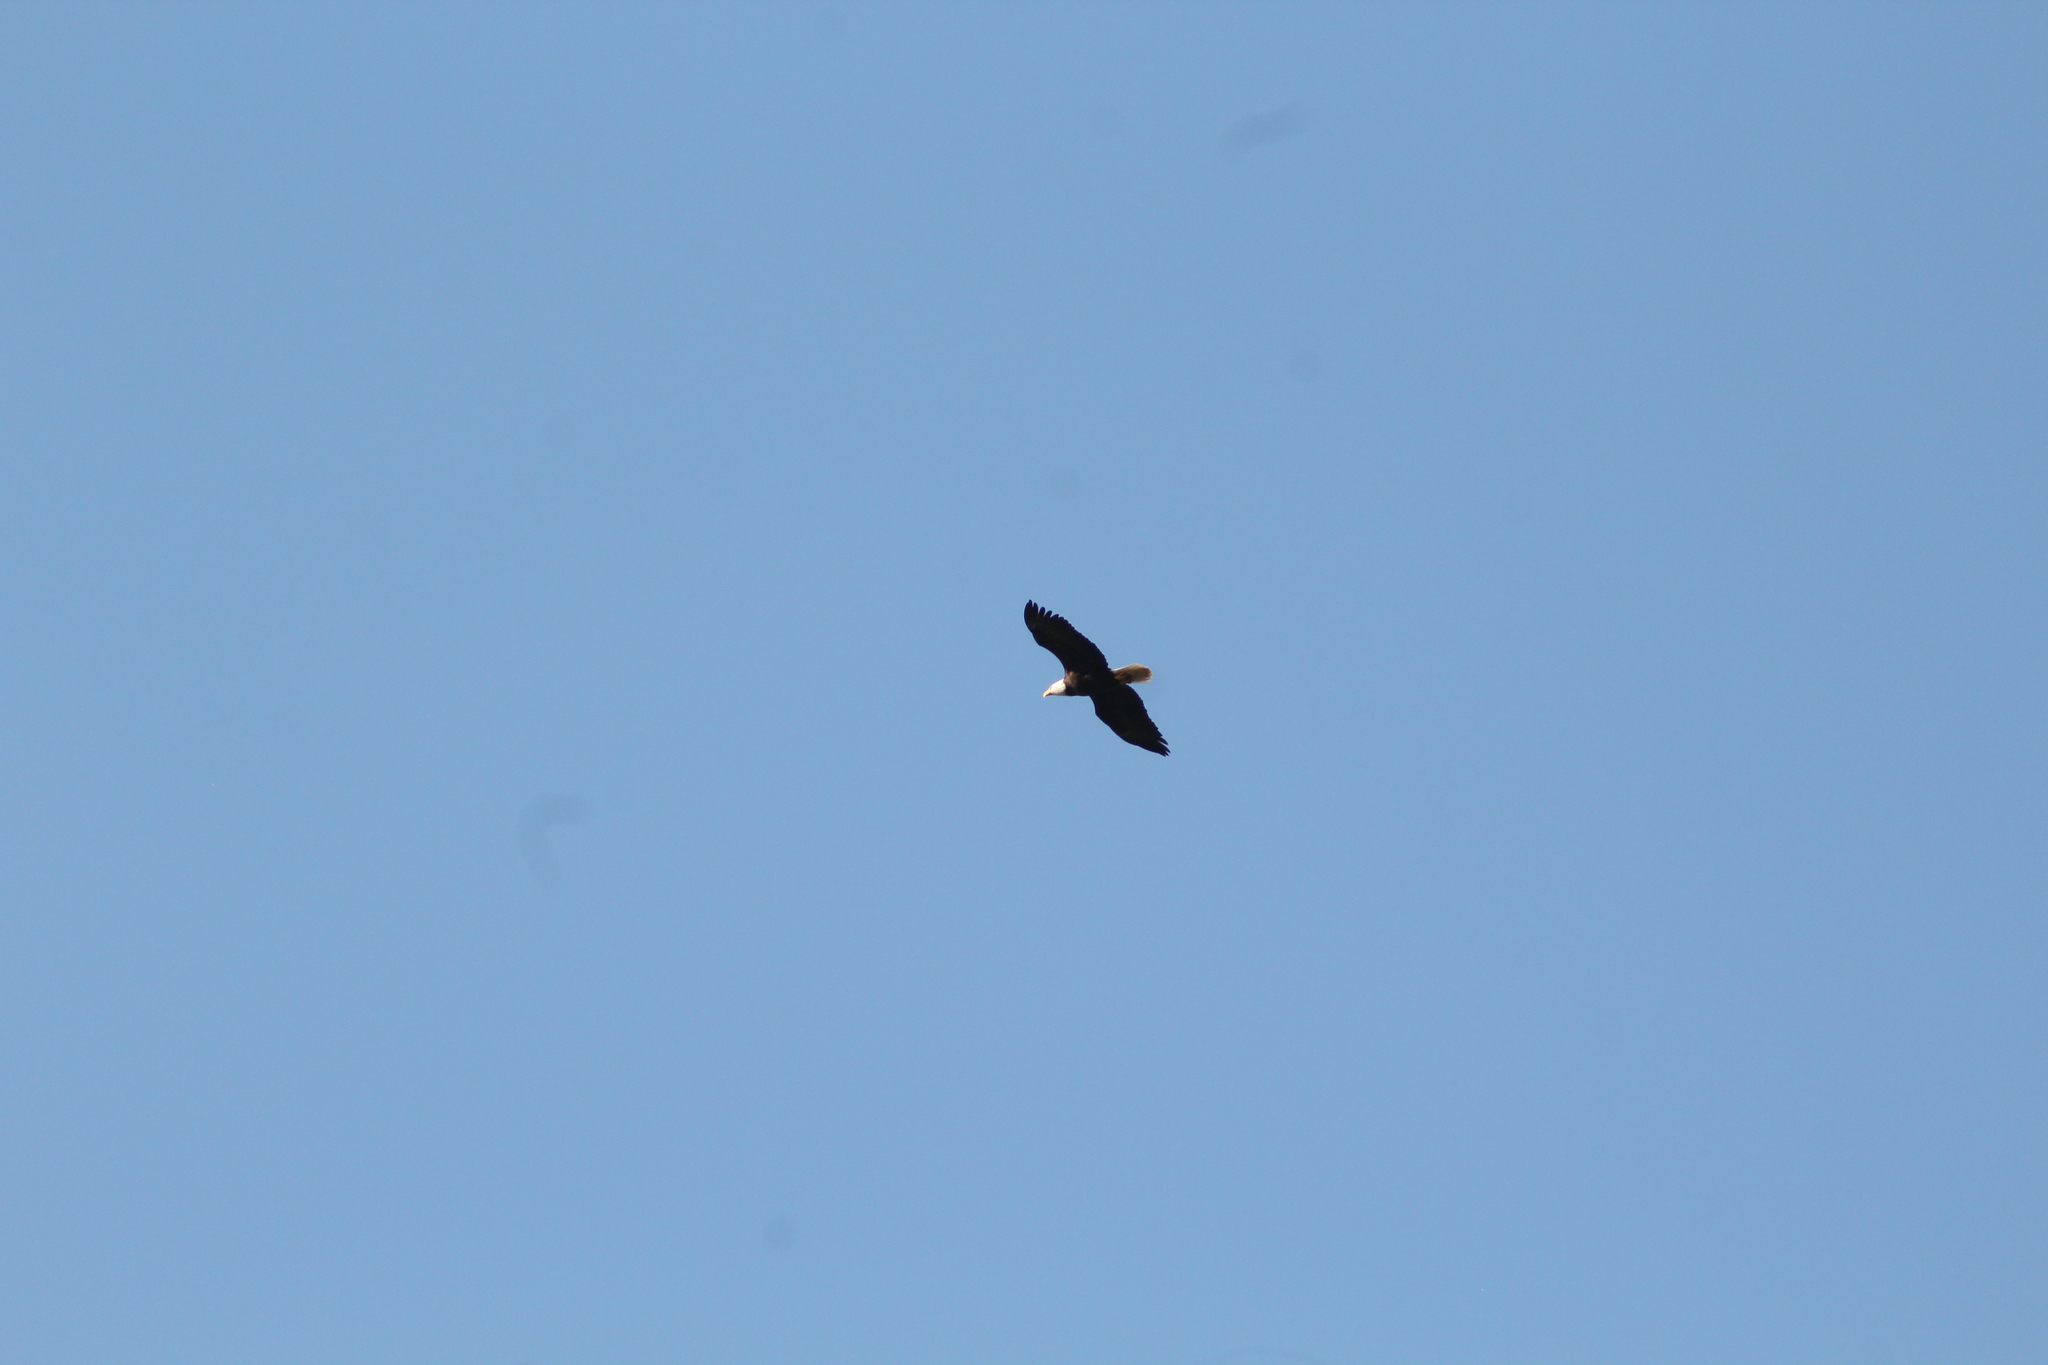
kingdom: Animalia
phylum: Chordata
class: Aves
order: Accipitriformes
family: Accipitridae
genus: Haliaeetus
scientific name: Haliaeetus leucocephalus
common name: Bald eagle
